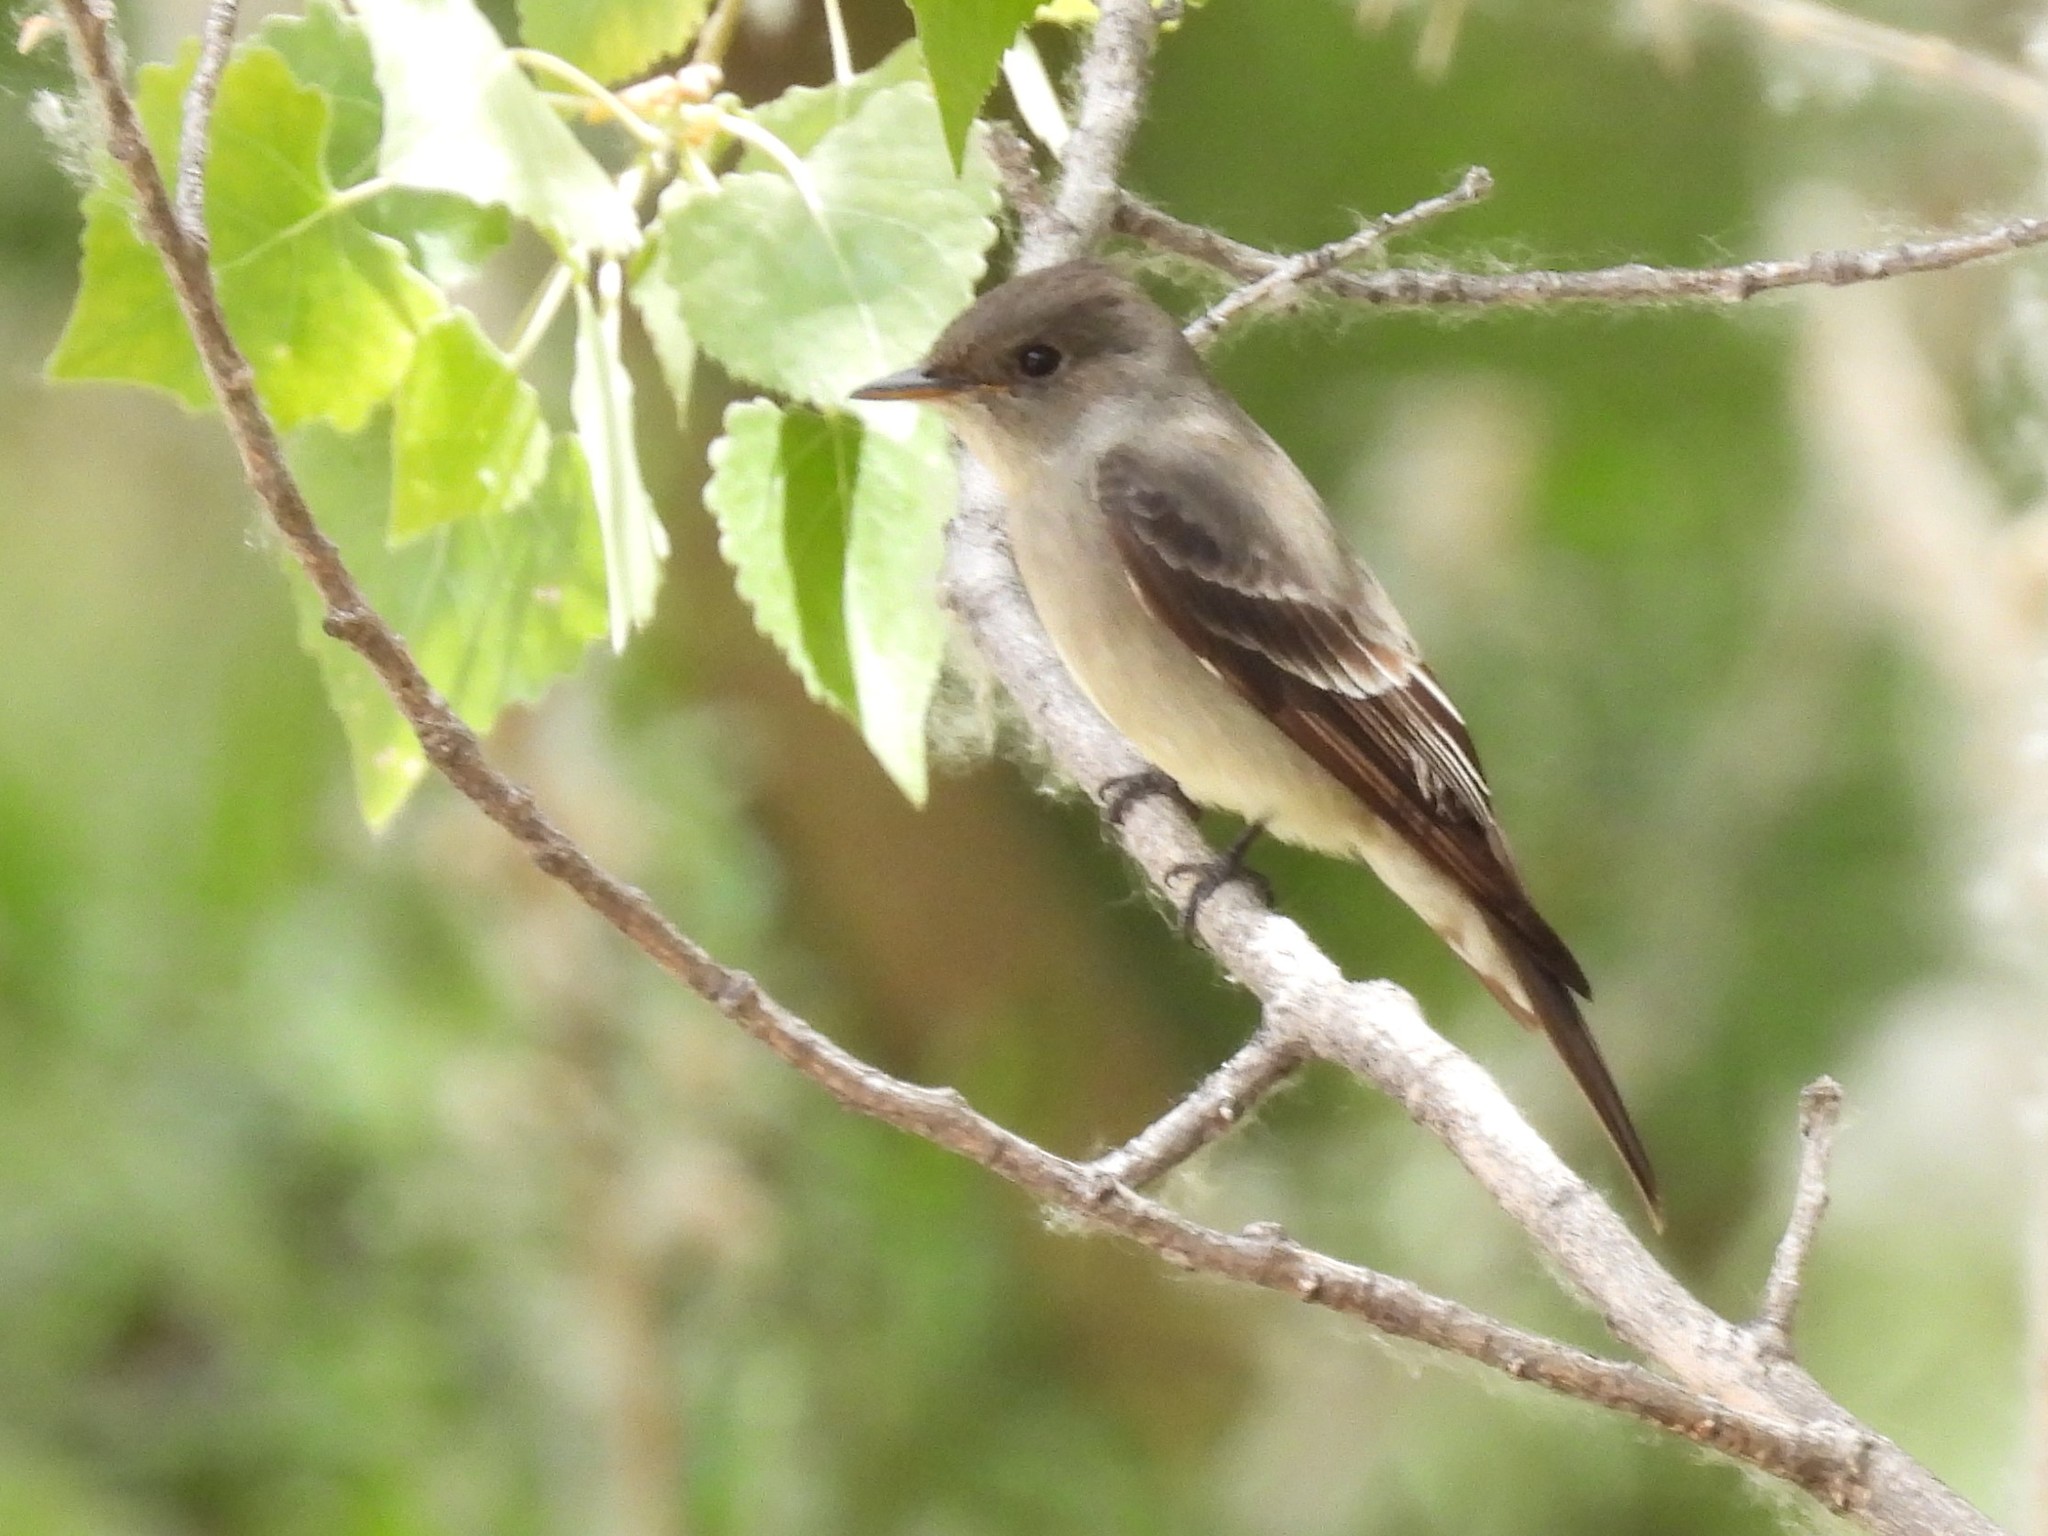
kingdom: Animalia
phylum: Chordata
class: Aves
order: Passeriformes
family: Tyrannidae
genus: Contopus
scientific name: Contopus sordidulus
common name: Western wood-pewee
